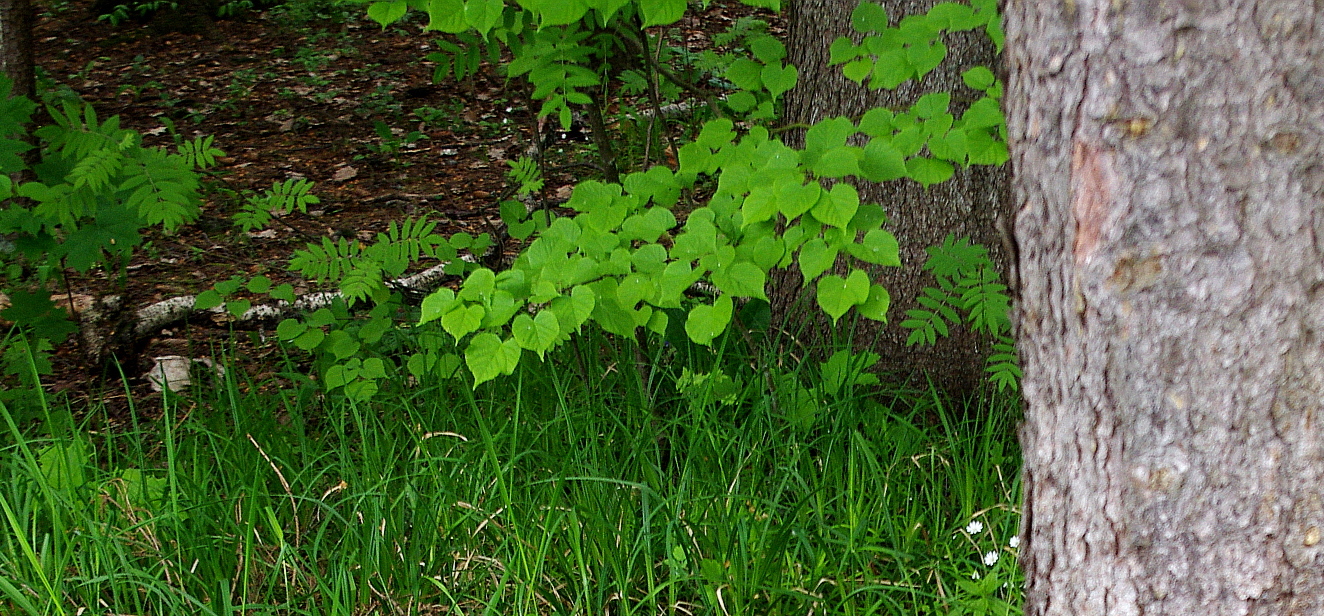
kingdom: Plantae
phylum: Tracheophyta
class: Magnoliopsida
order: Malvales
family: Malvaceae
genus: Tilia
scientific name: Tilia cordata
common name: Small-leaved lime
